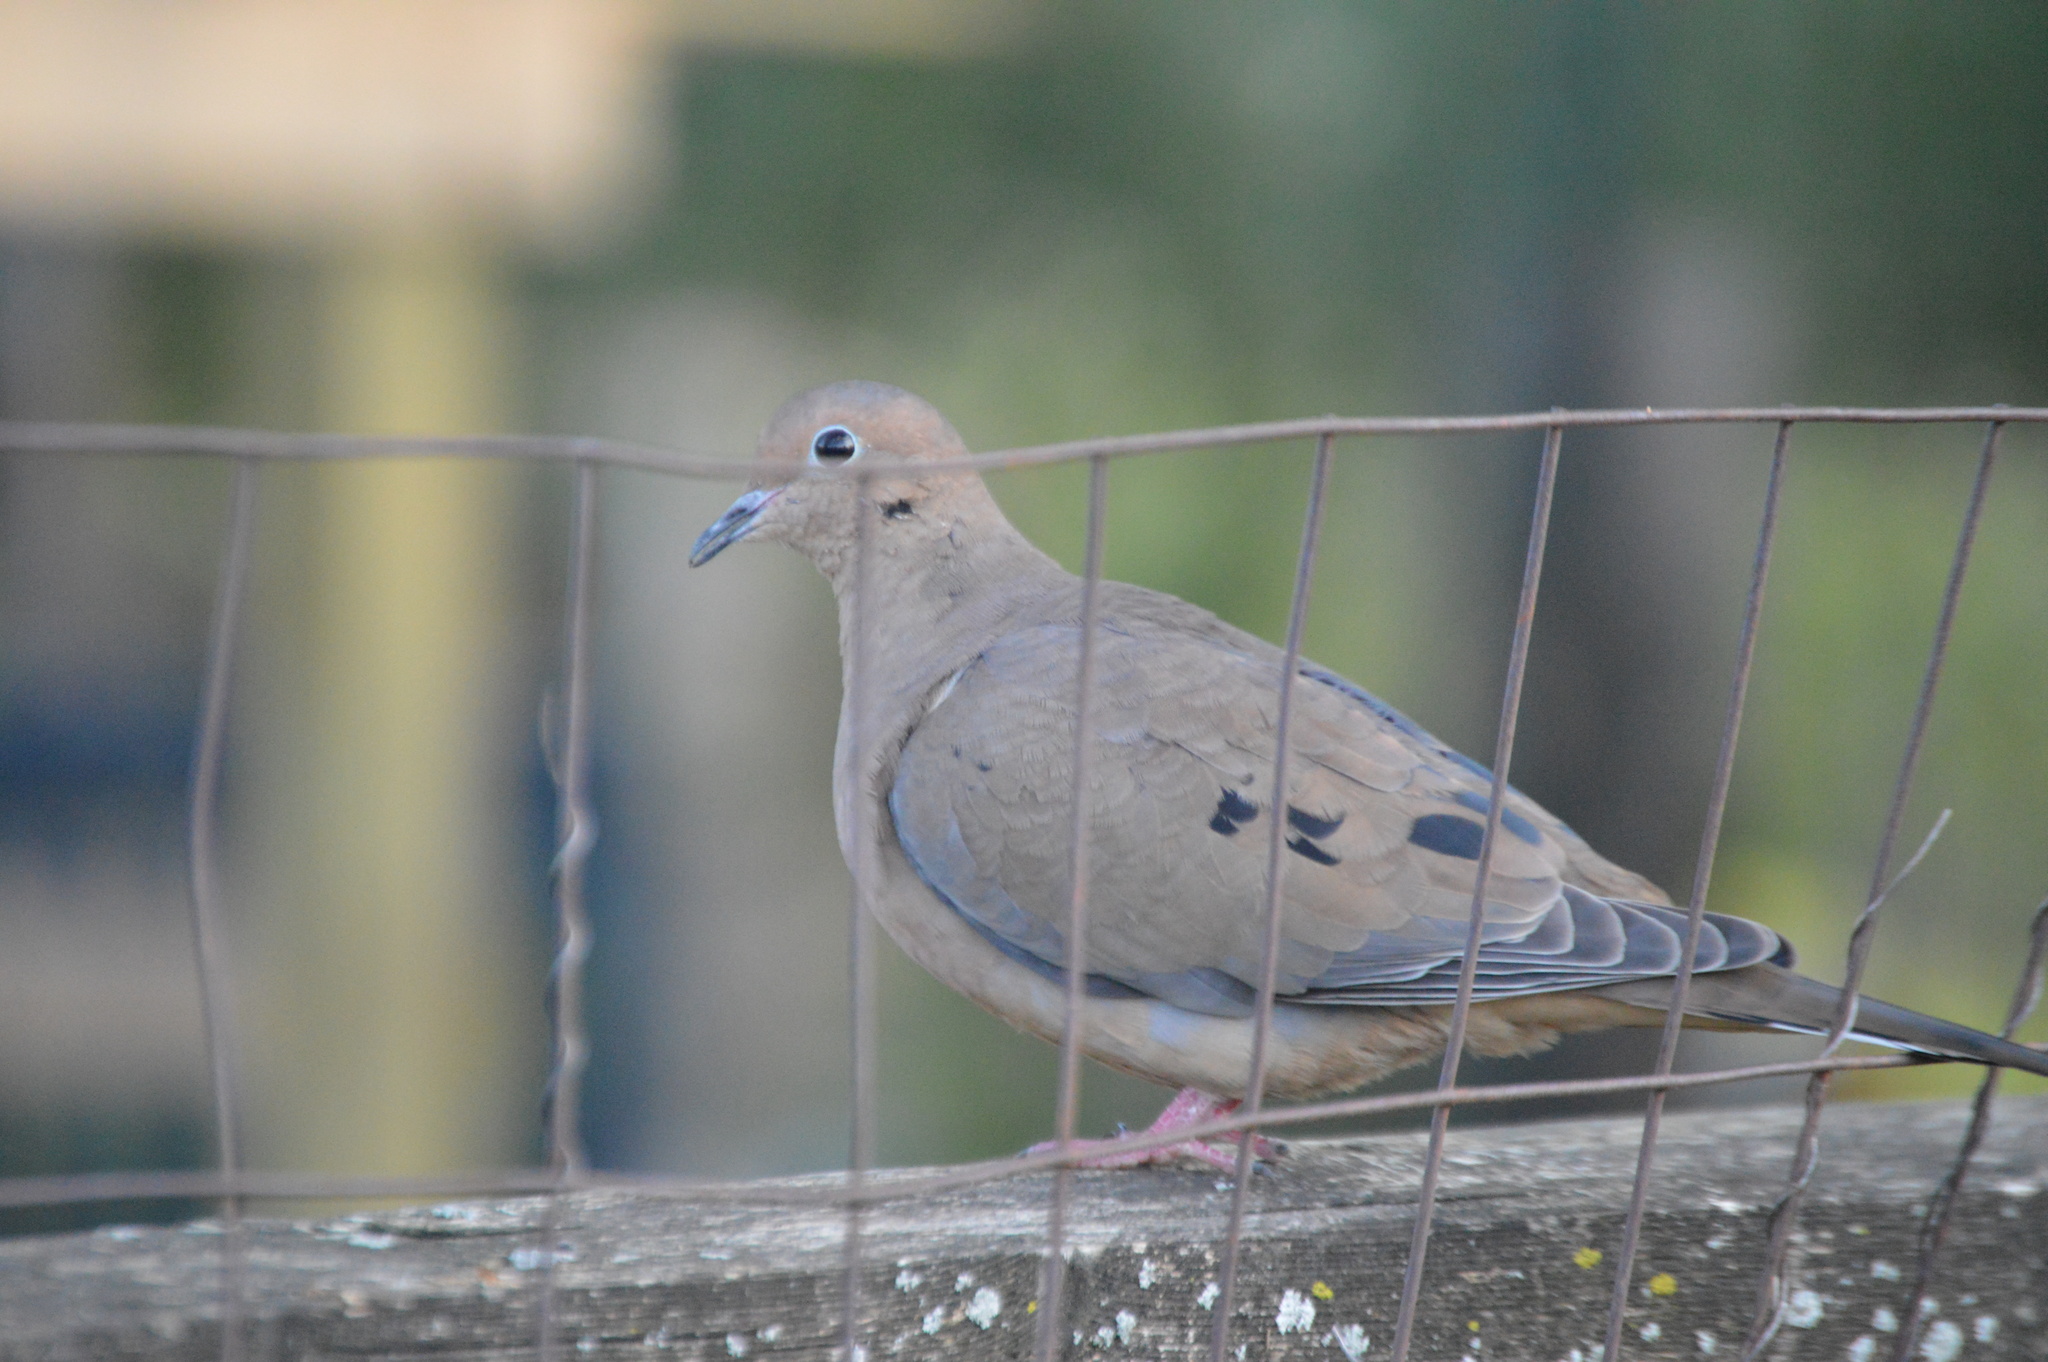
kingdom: Animalia
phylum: Chordata
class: Aves
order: Columbiformes
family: Columbidae
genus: Zenaida
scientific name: Zenaida macroura
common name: Mourning dove
